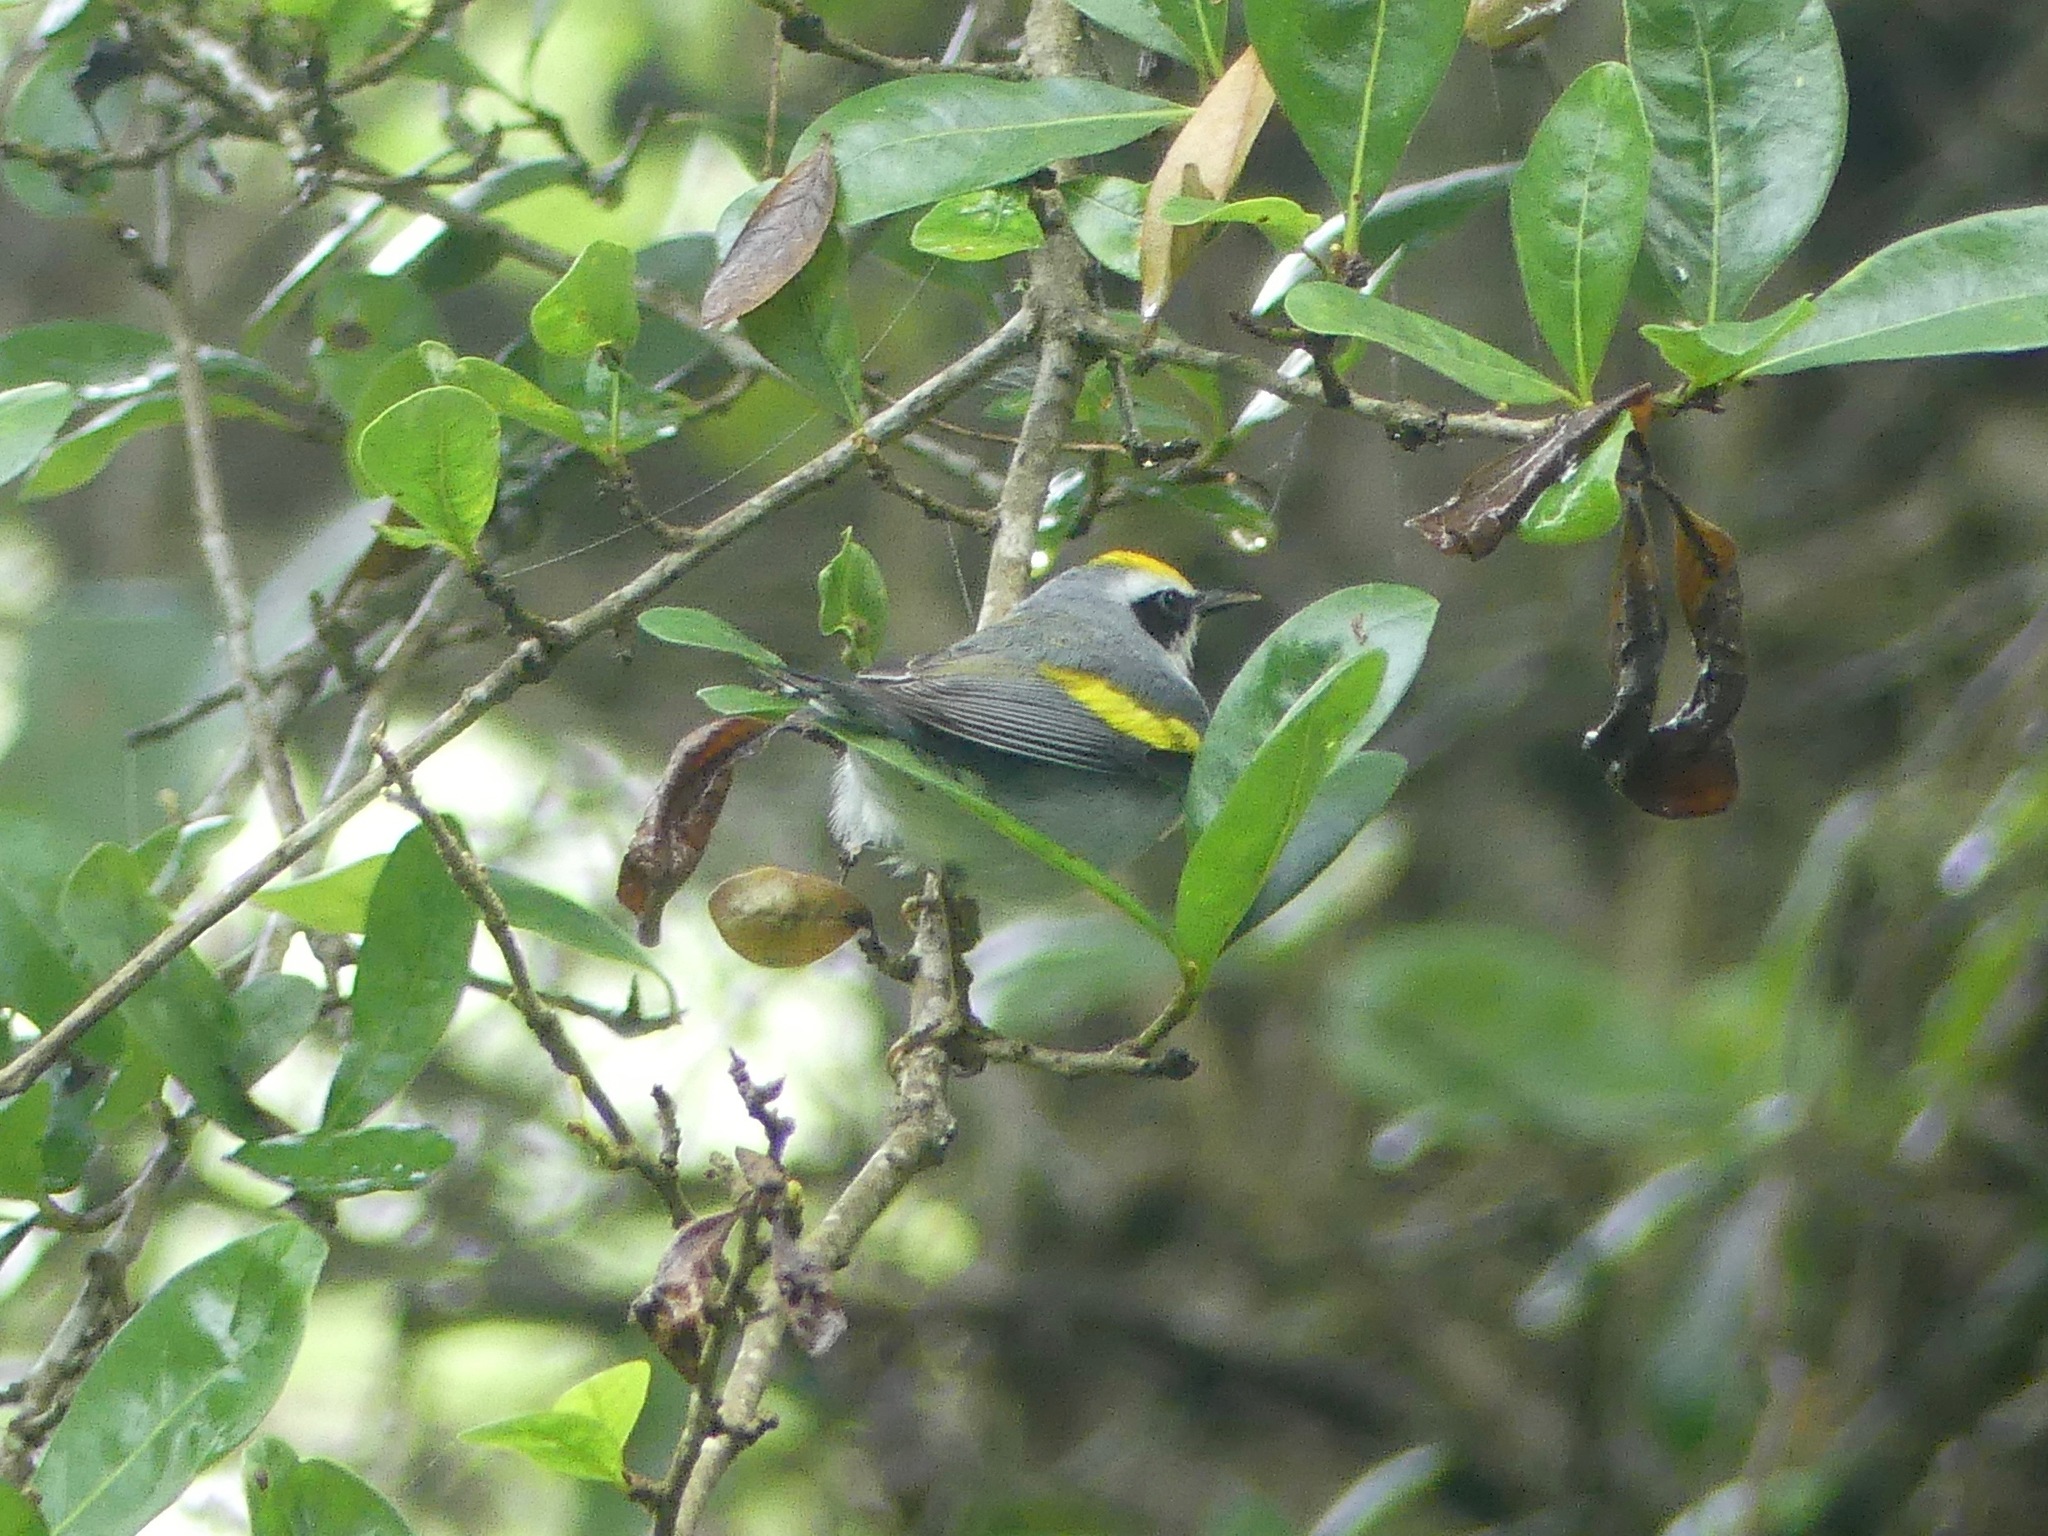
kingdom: Animalia
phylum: Chordata
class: Aves
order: Passeriformes
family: Parulidae
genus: Vermivora
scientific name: Vermivora chrysoptera
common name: Golden-winged warbler
